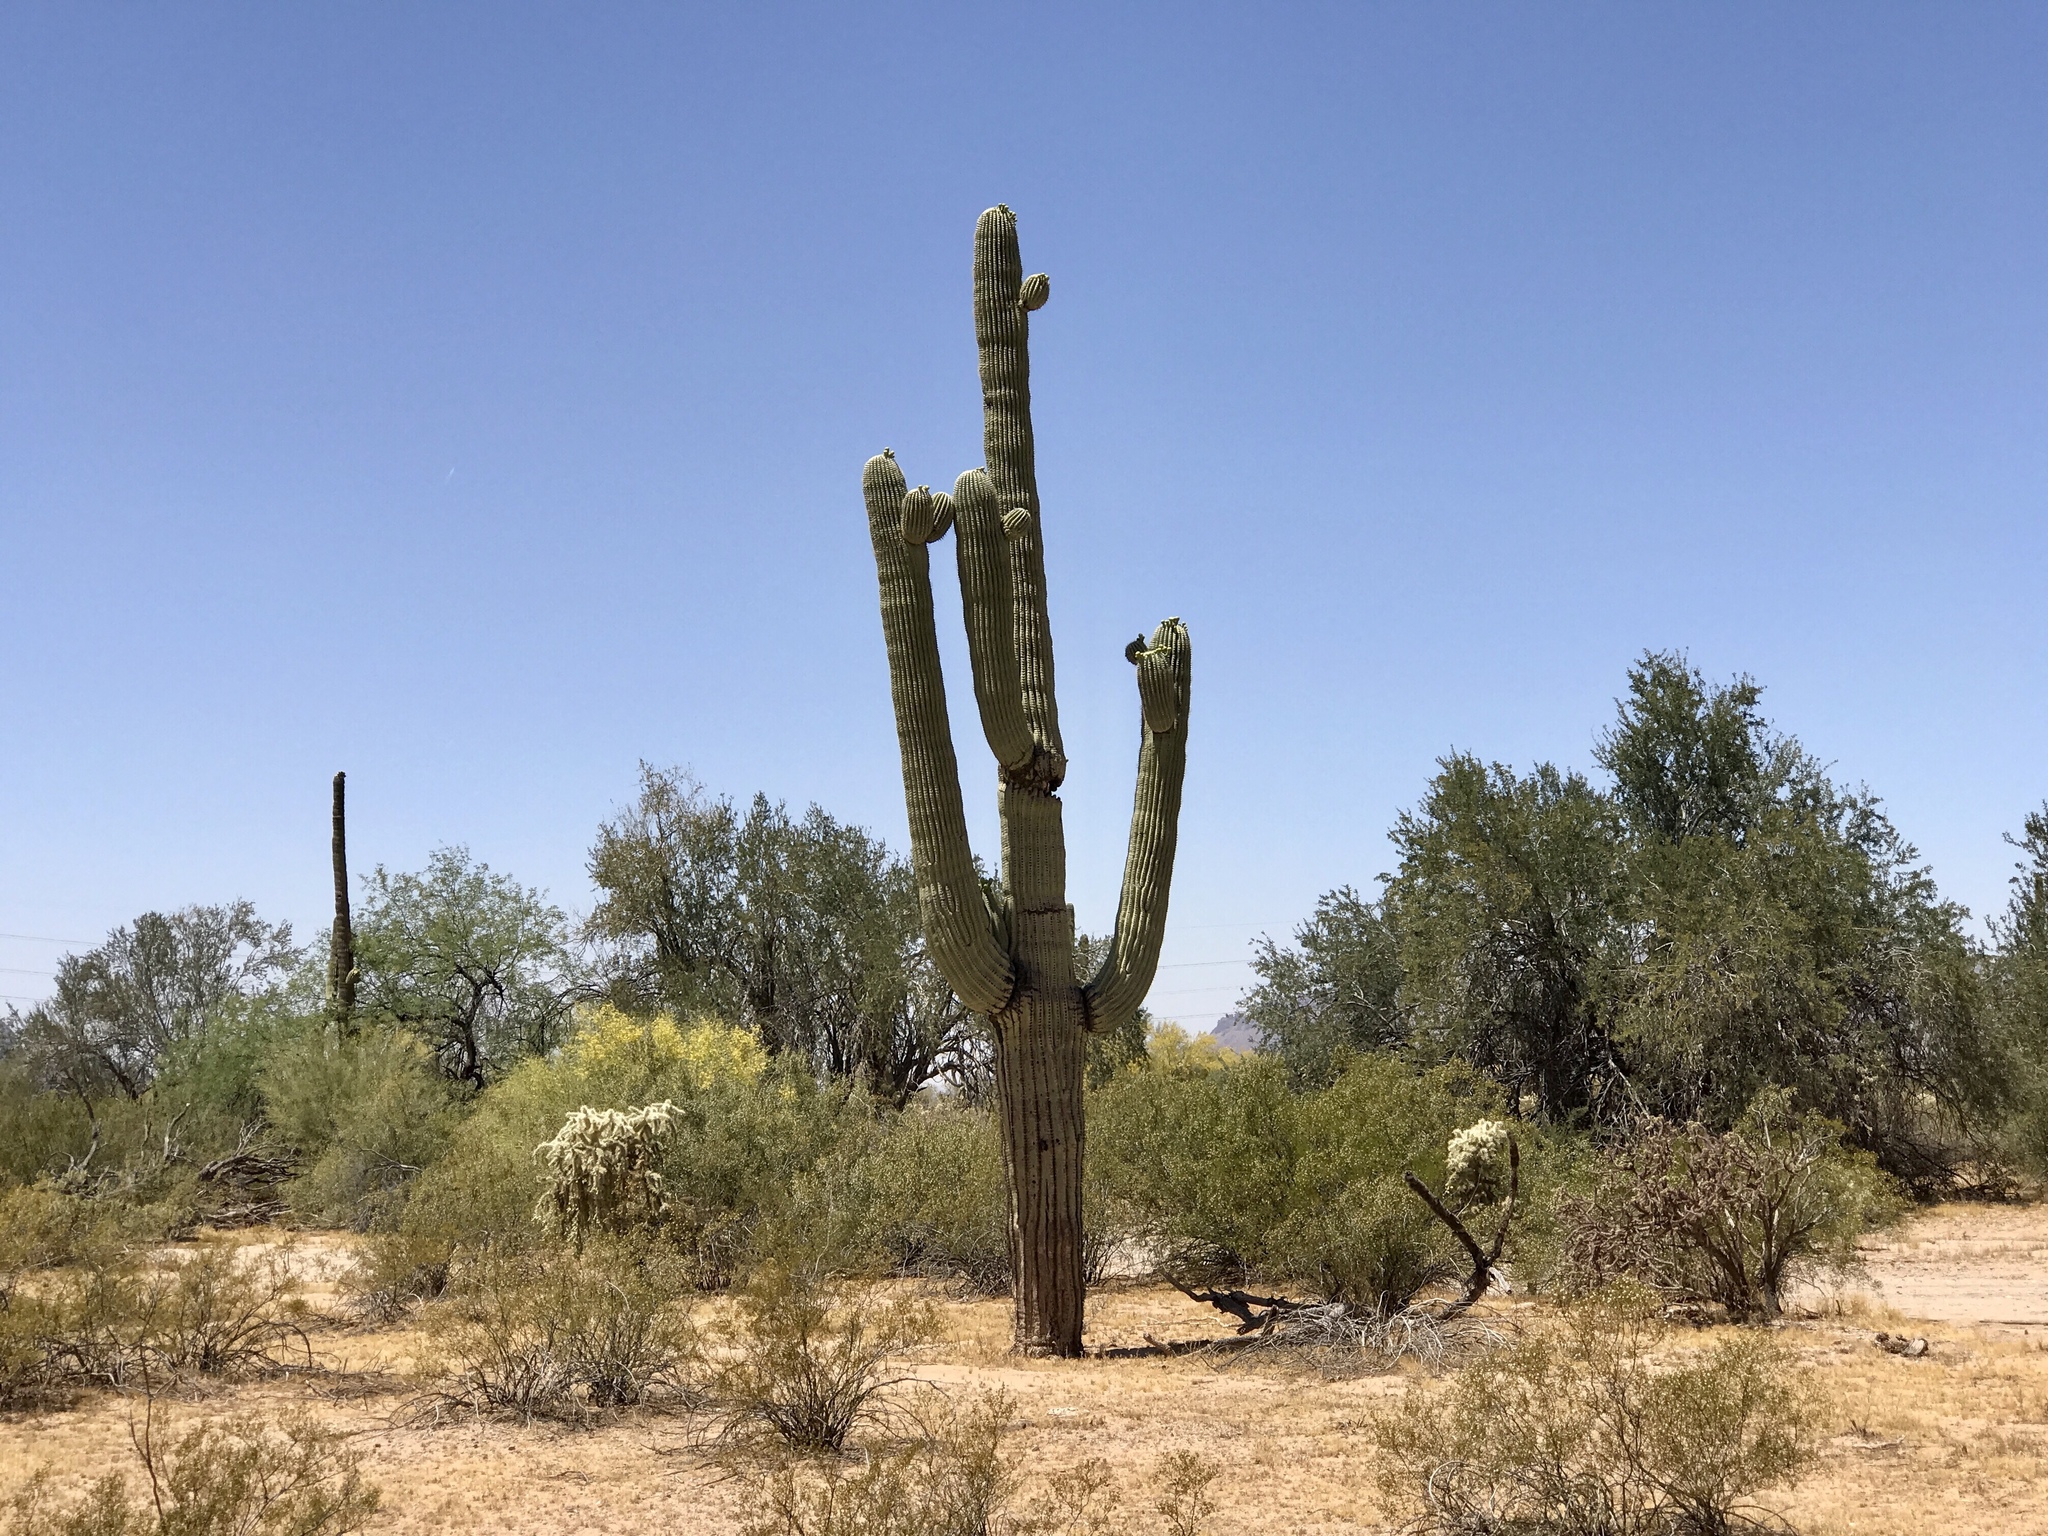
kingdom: Plantae
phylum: Tracheophyta
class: Magnoliopsida
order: Caryophyllales
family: Cactaceae
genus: Carnegiea
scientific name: Carnegiea gigantea
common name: Saguaro
